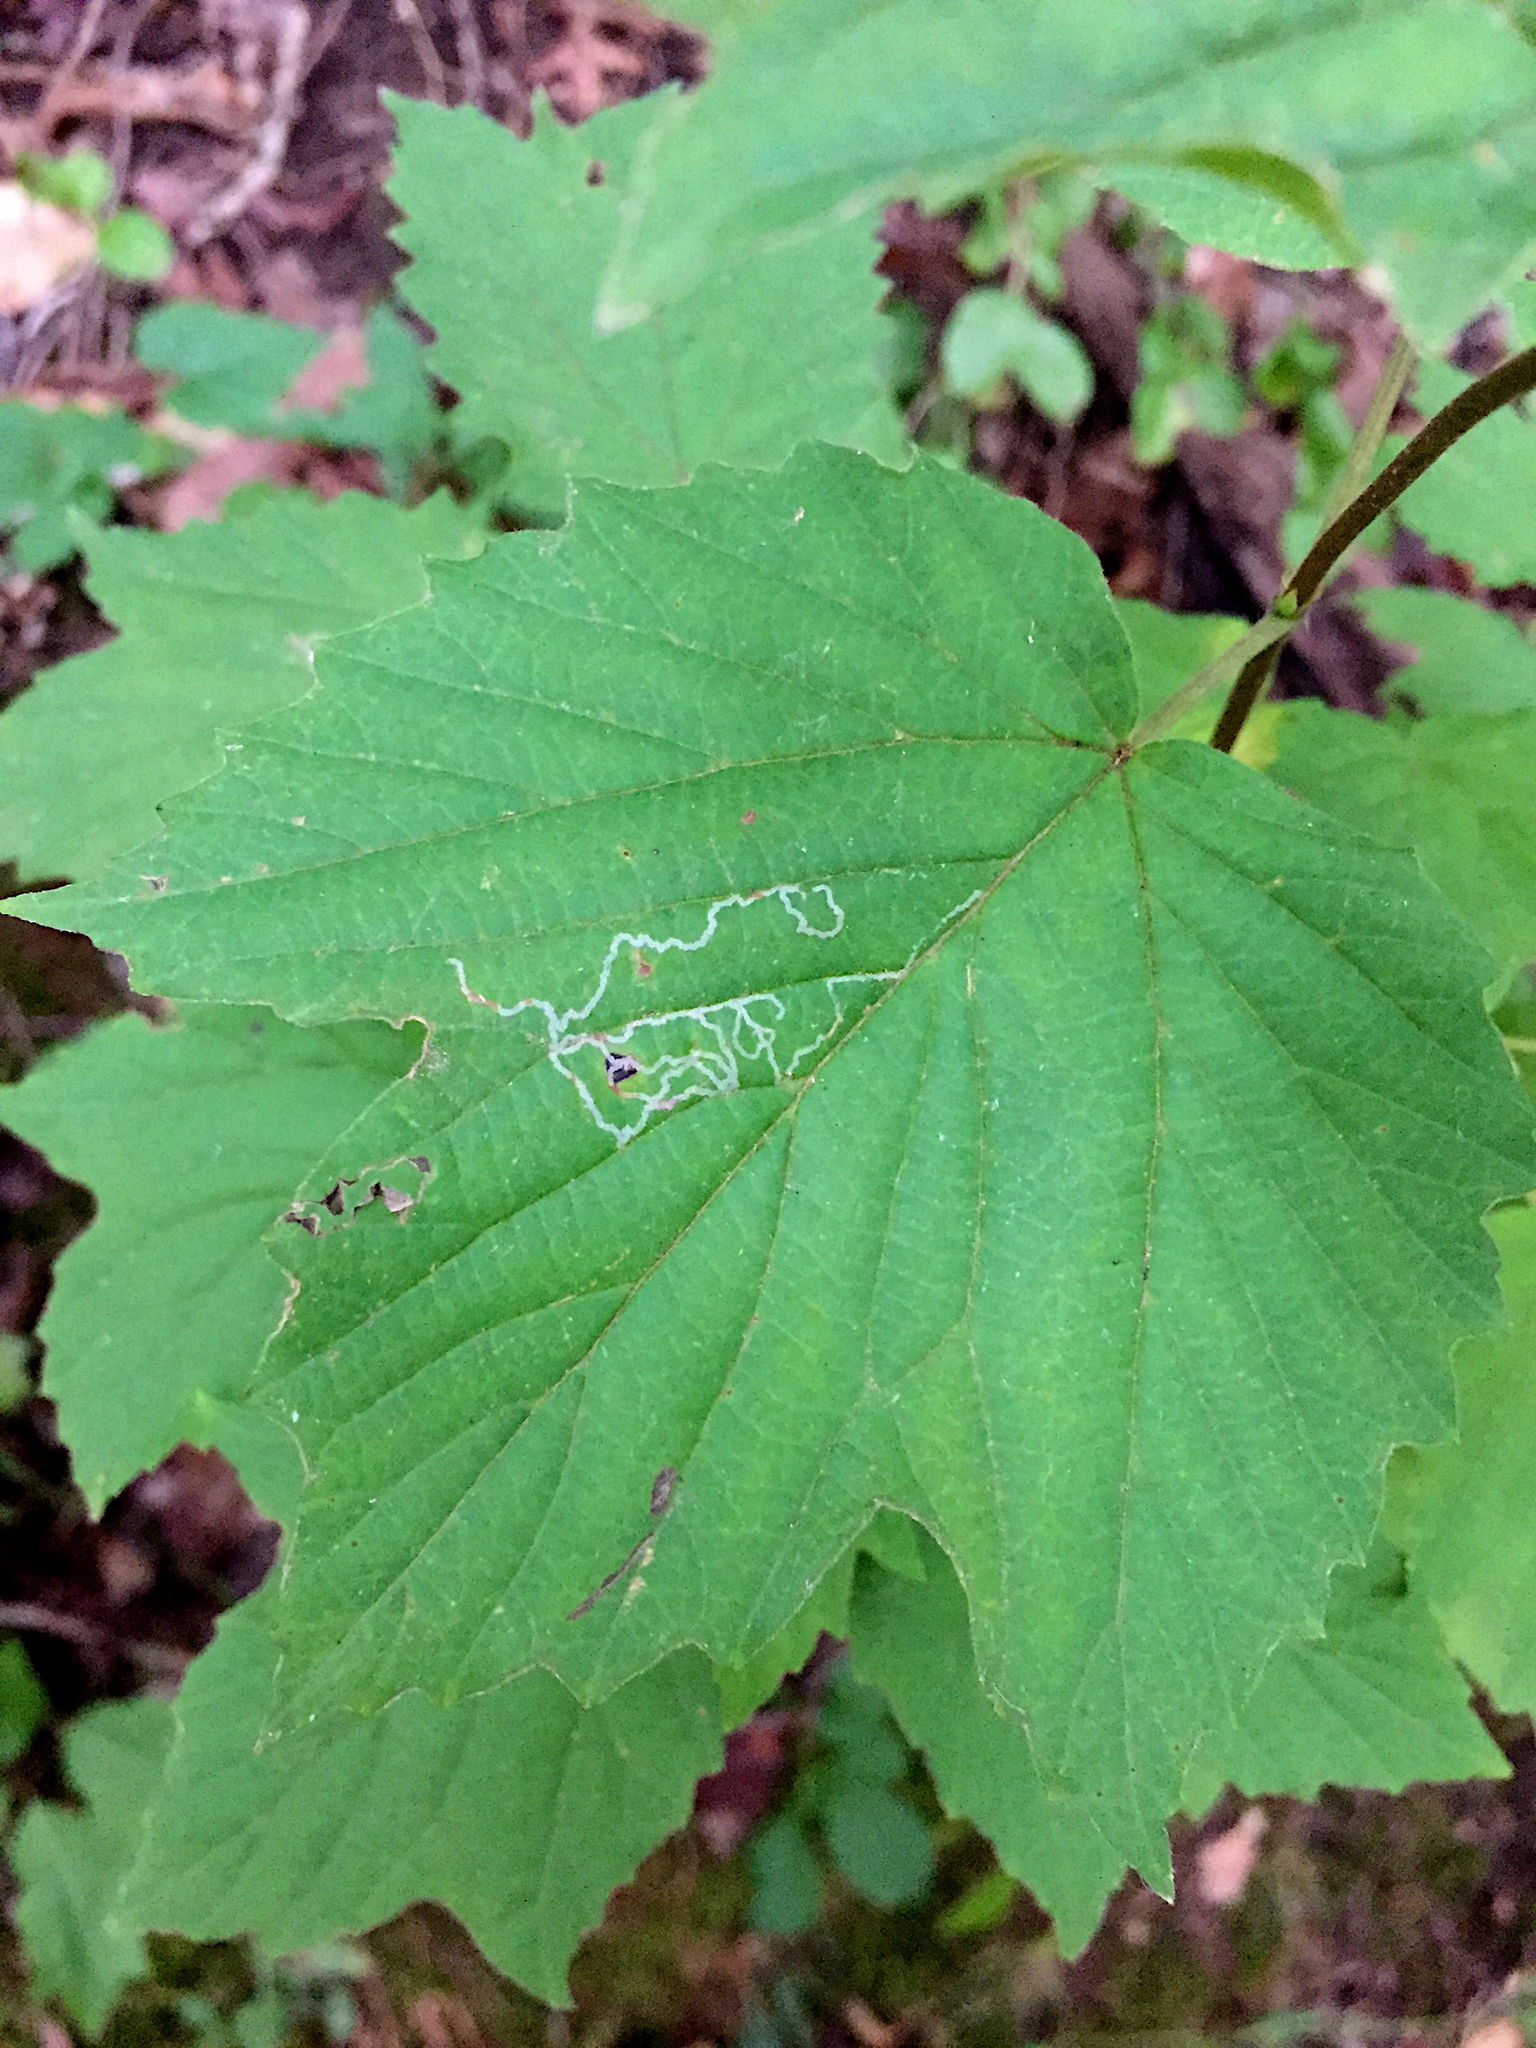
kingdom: Animalia
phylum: Arthropoda
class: Insecta
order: Lepidoptera
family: Gracillariidae
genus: Marmara
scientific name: Marmara viburnella
